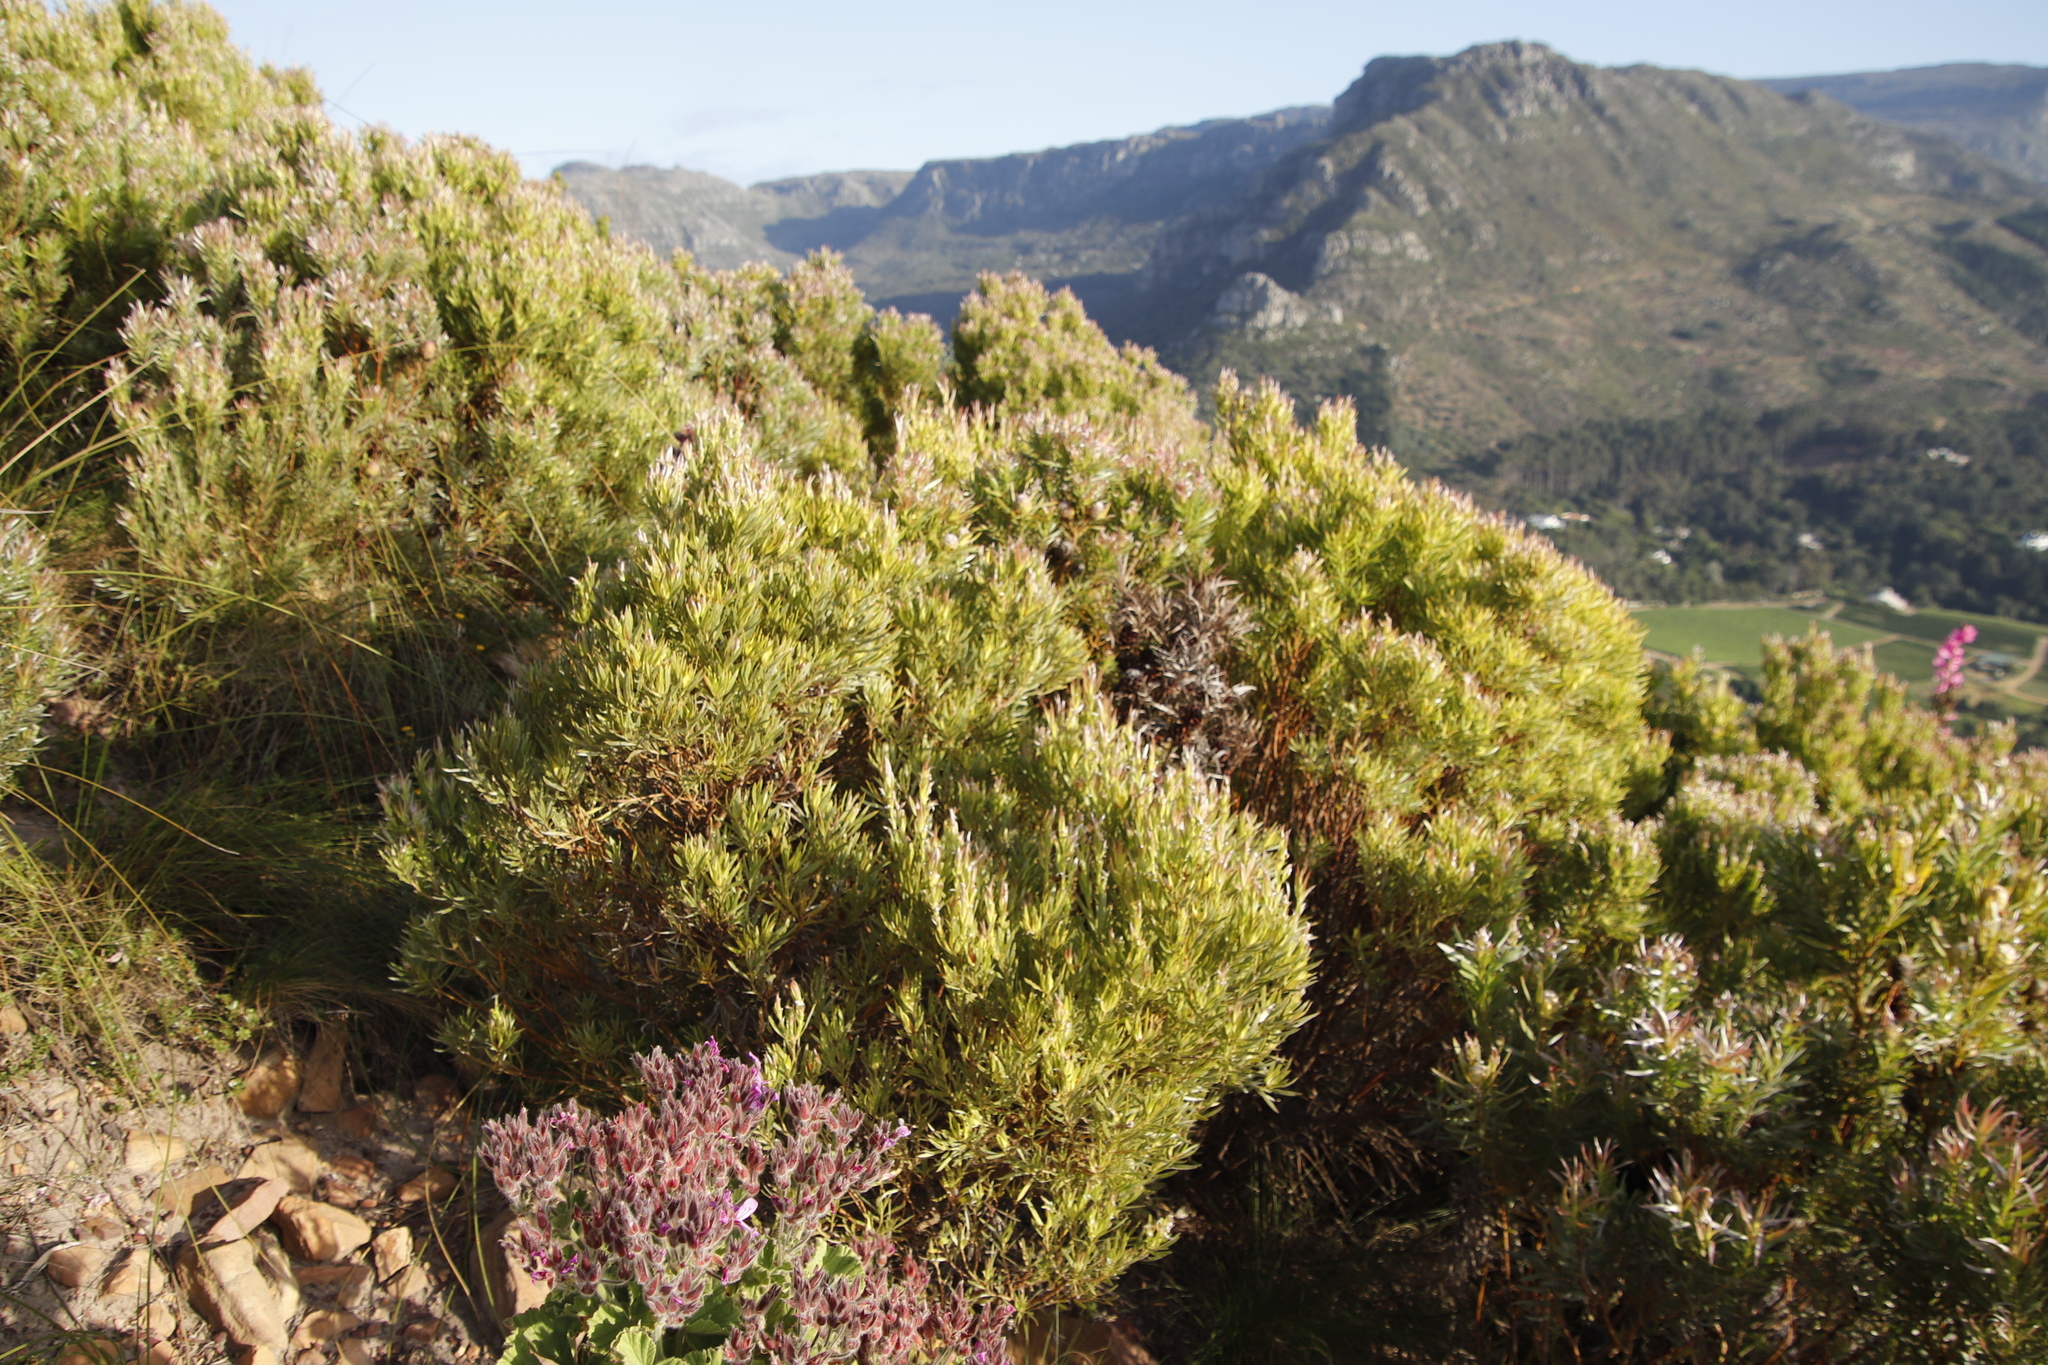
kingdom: Plantae
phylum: Tracheophyta
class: Magnoliopsida
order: Proteales
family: Proteaceae
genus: Leucadendron
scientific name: Leucadendron xanthoconus
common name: Sickle-leaf conebush
